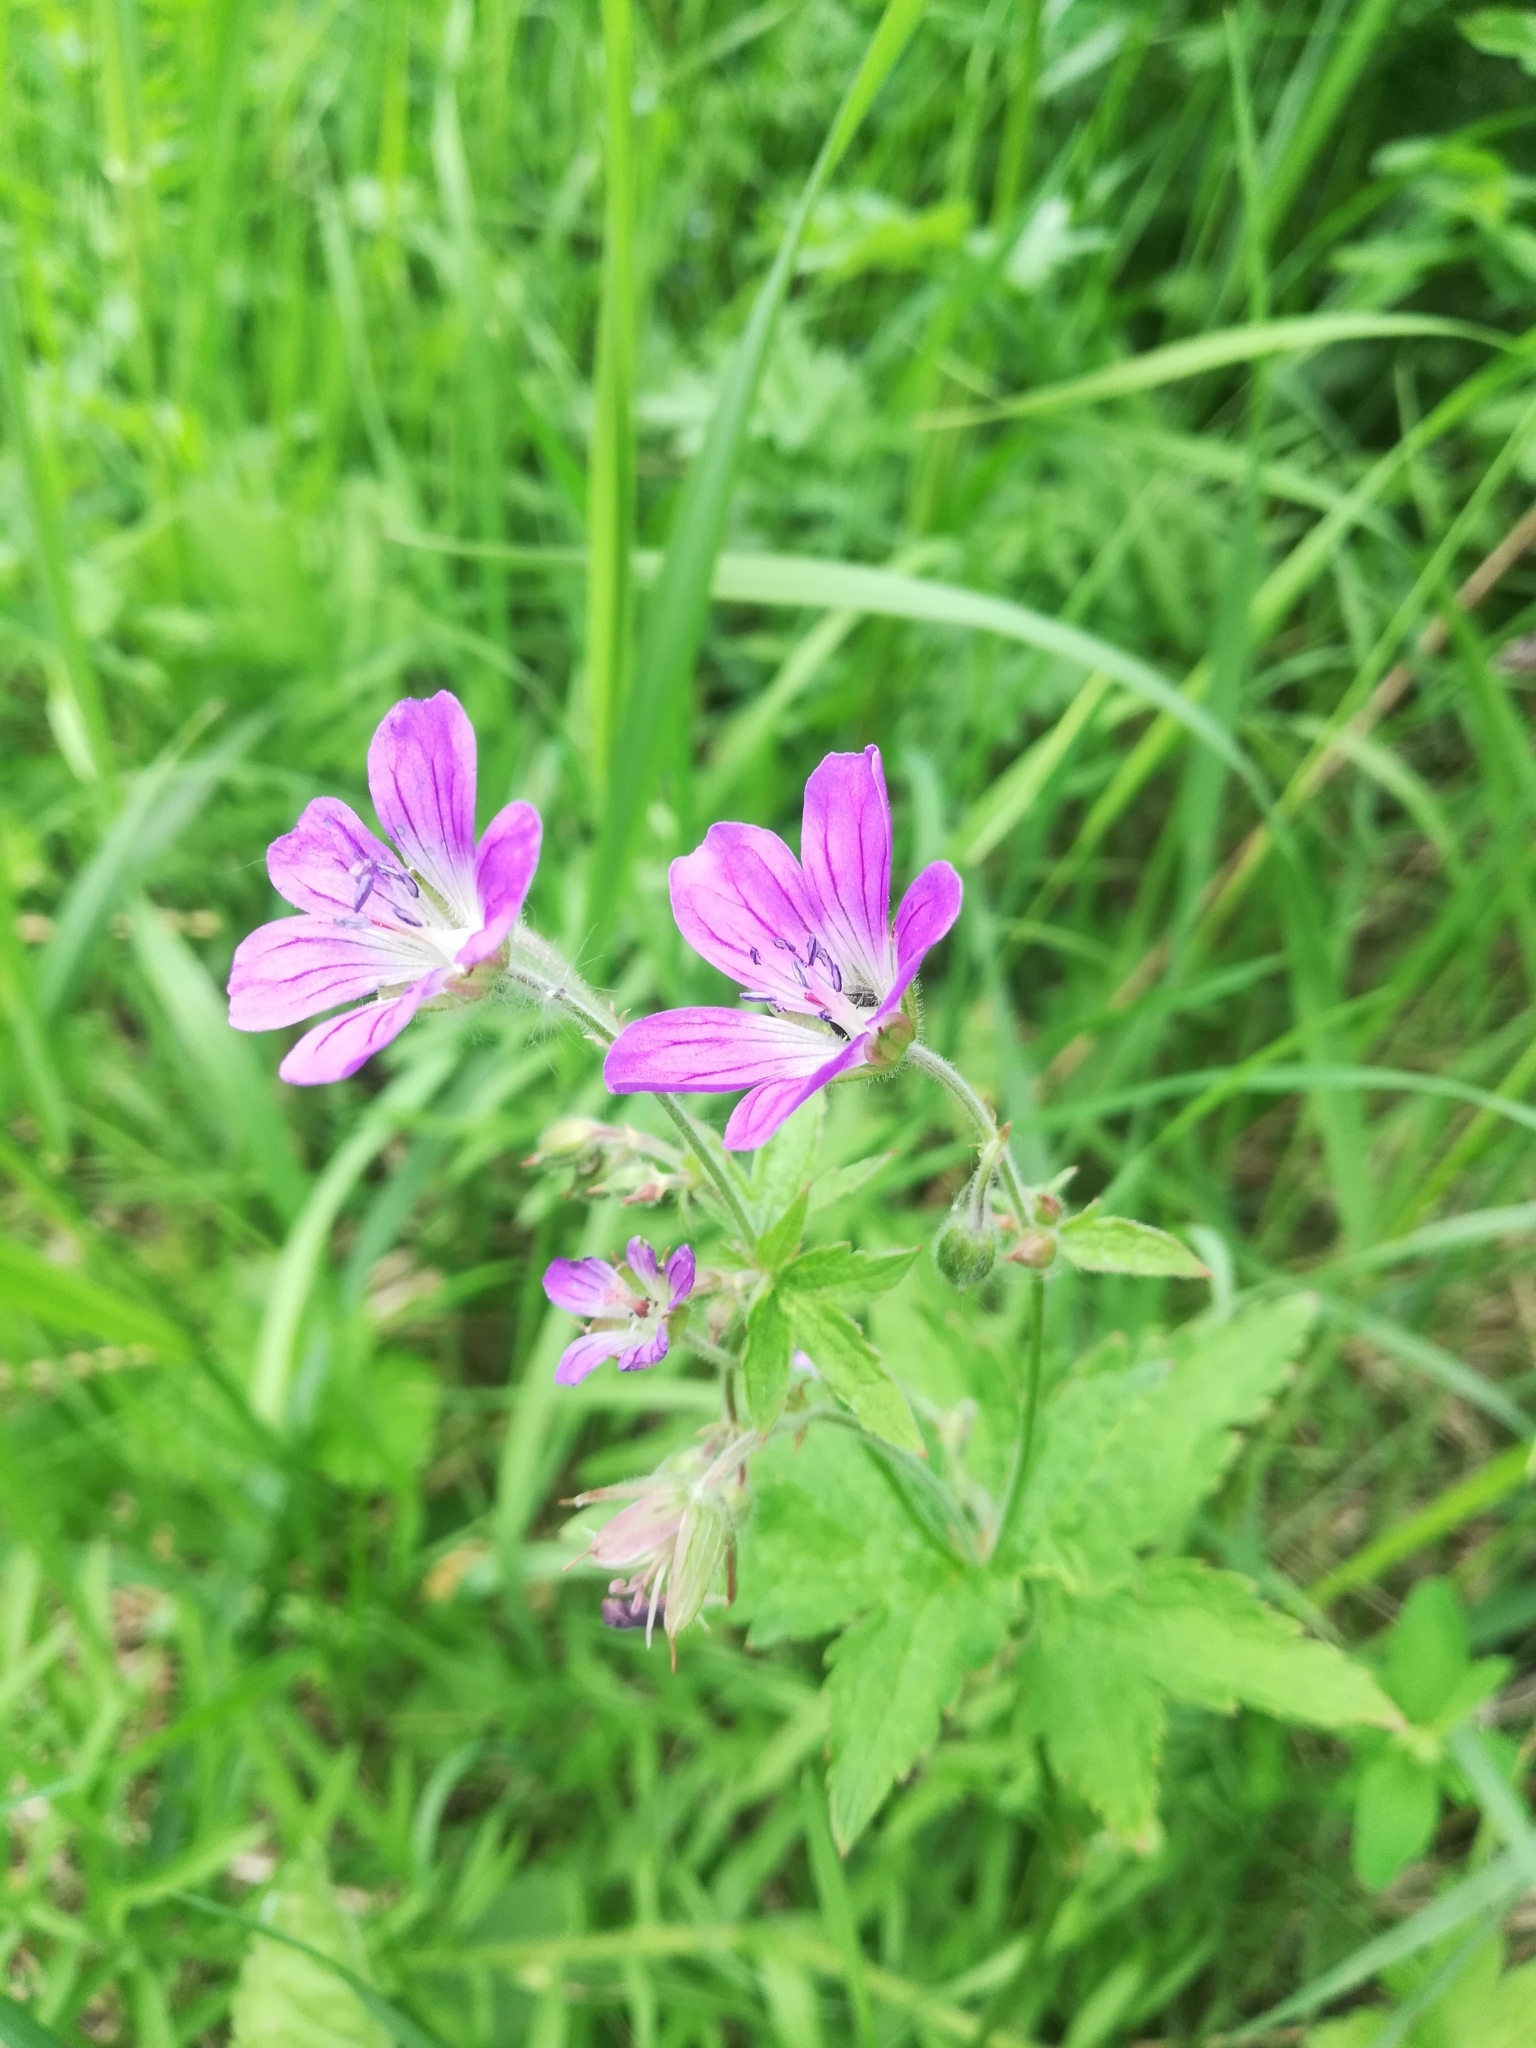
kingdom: Plantae
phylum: Tracheophyta
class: Magnoliopsida
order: Geraniales
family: Geraniaceae
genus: Geranium
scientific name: Geranium sylvaticum
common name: Wood crane's-bill
